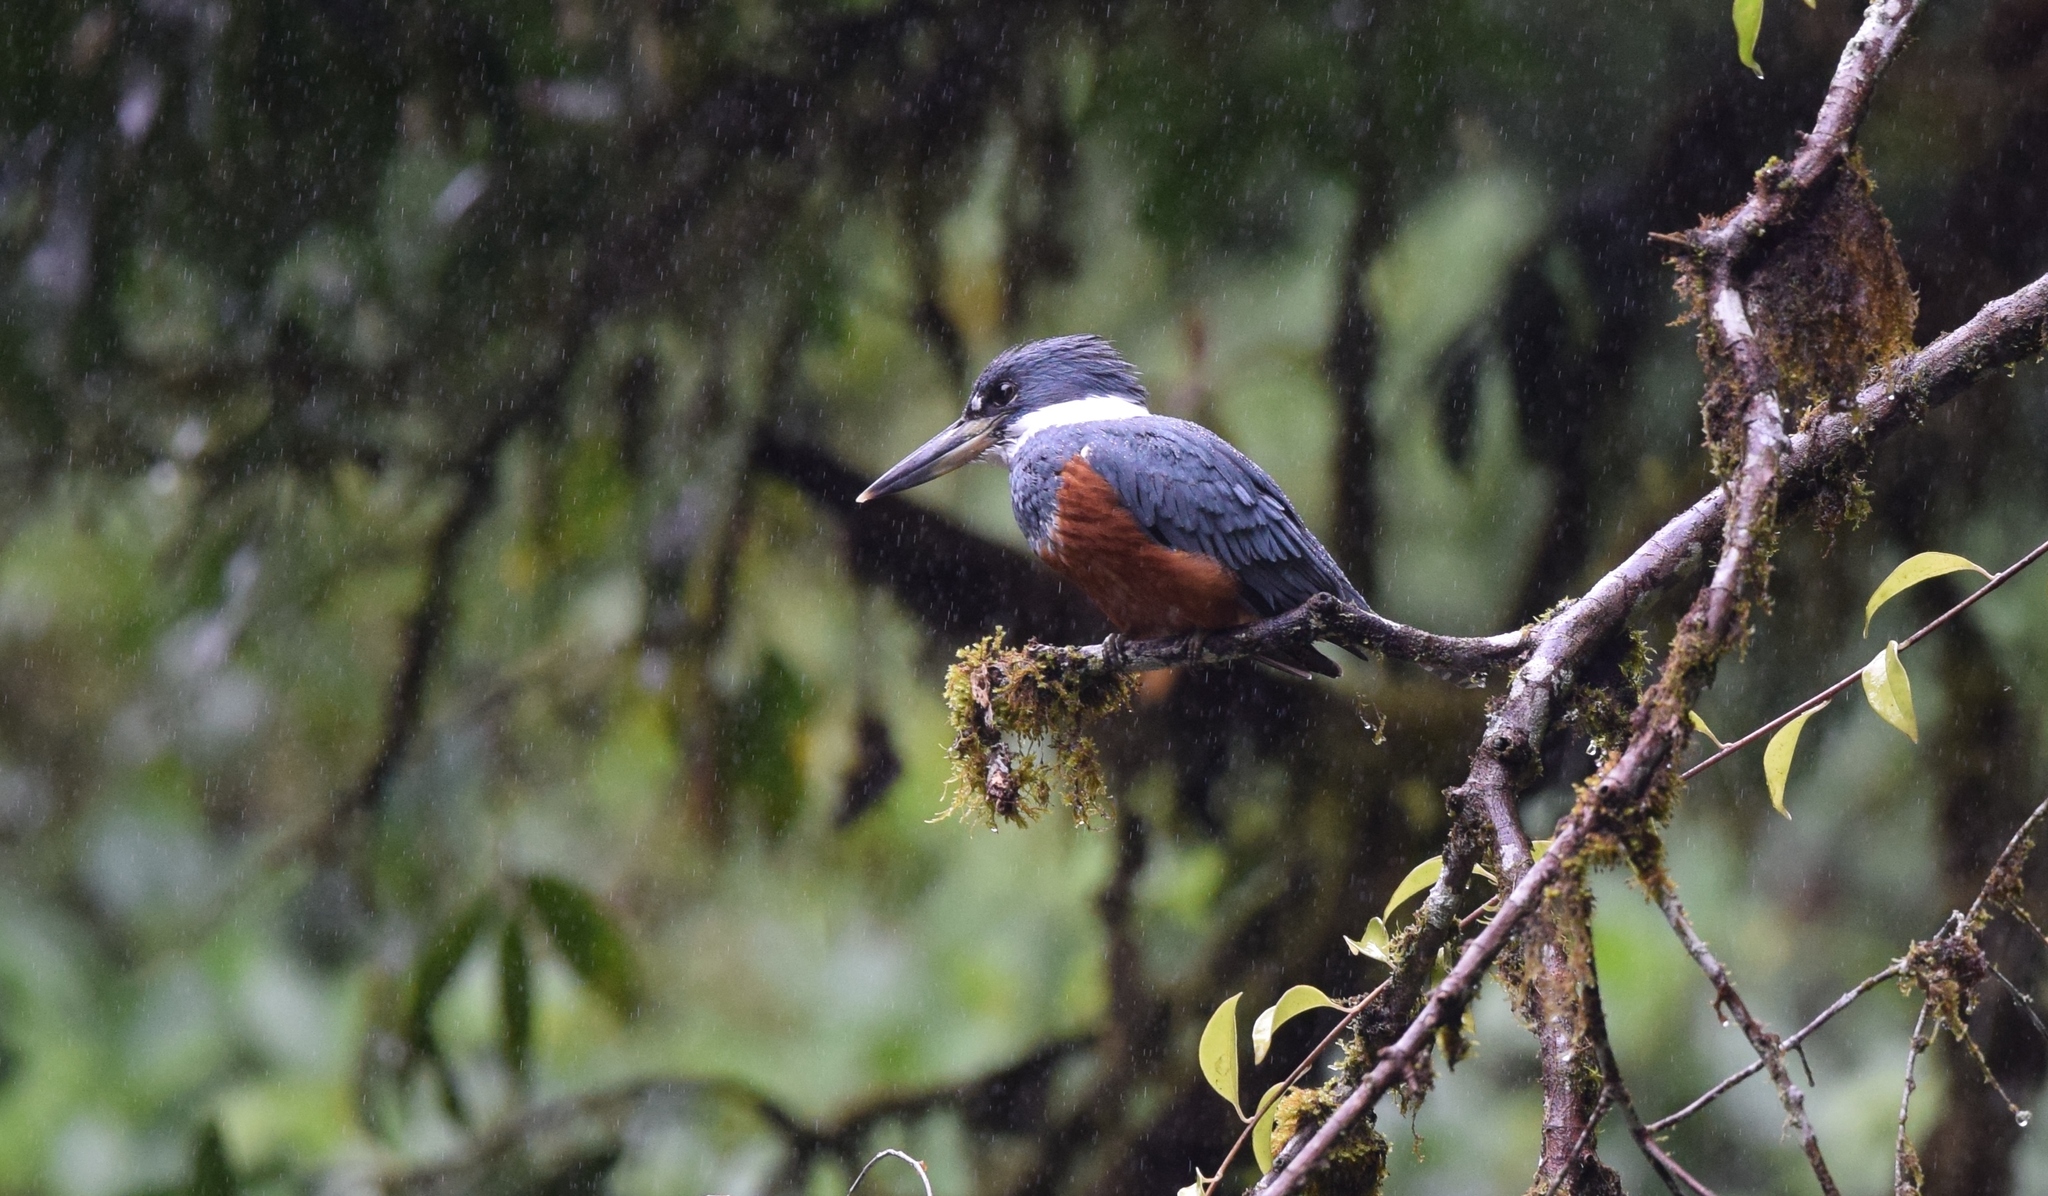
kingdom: Animalia
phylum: Chordata
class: Aves
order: Coraciiformes
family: Alcedinidae
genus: Megaceryle
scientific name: Megaceryle torquata
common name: Ringed kingfisher
